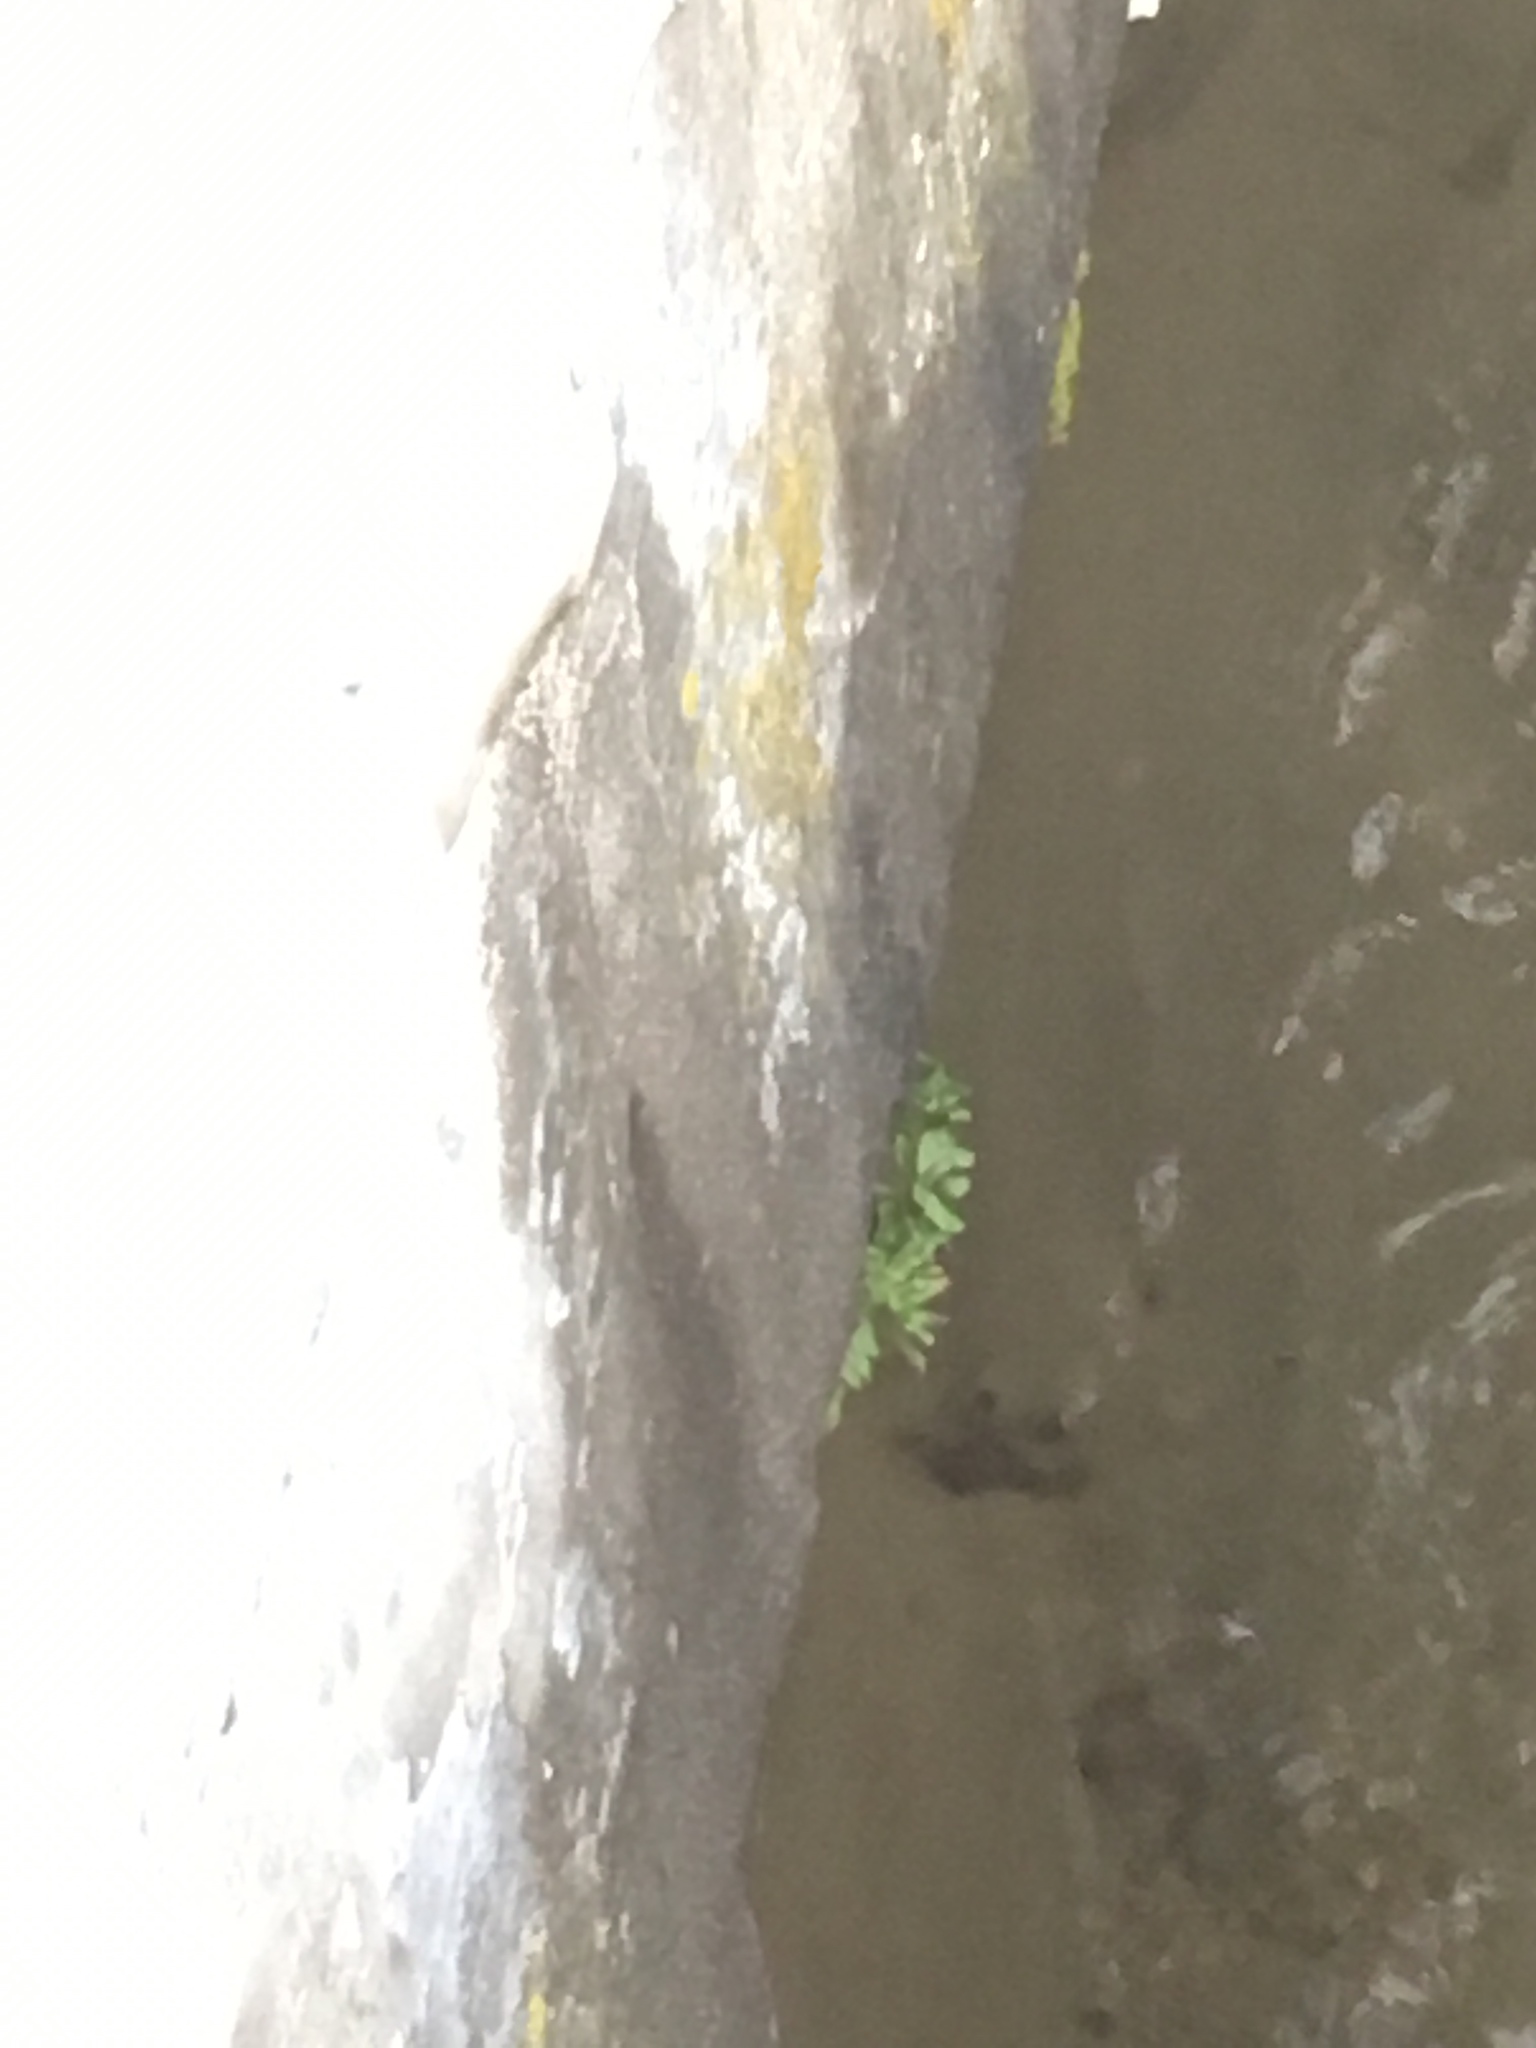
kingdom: Plantae
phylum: Tracheophyta
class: Polypodiopsida
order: Polypodiales
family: Polypodiaceae
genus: Polypodium
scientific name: Polypodium glycyrrhiza
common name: Licorice fern
